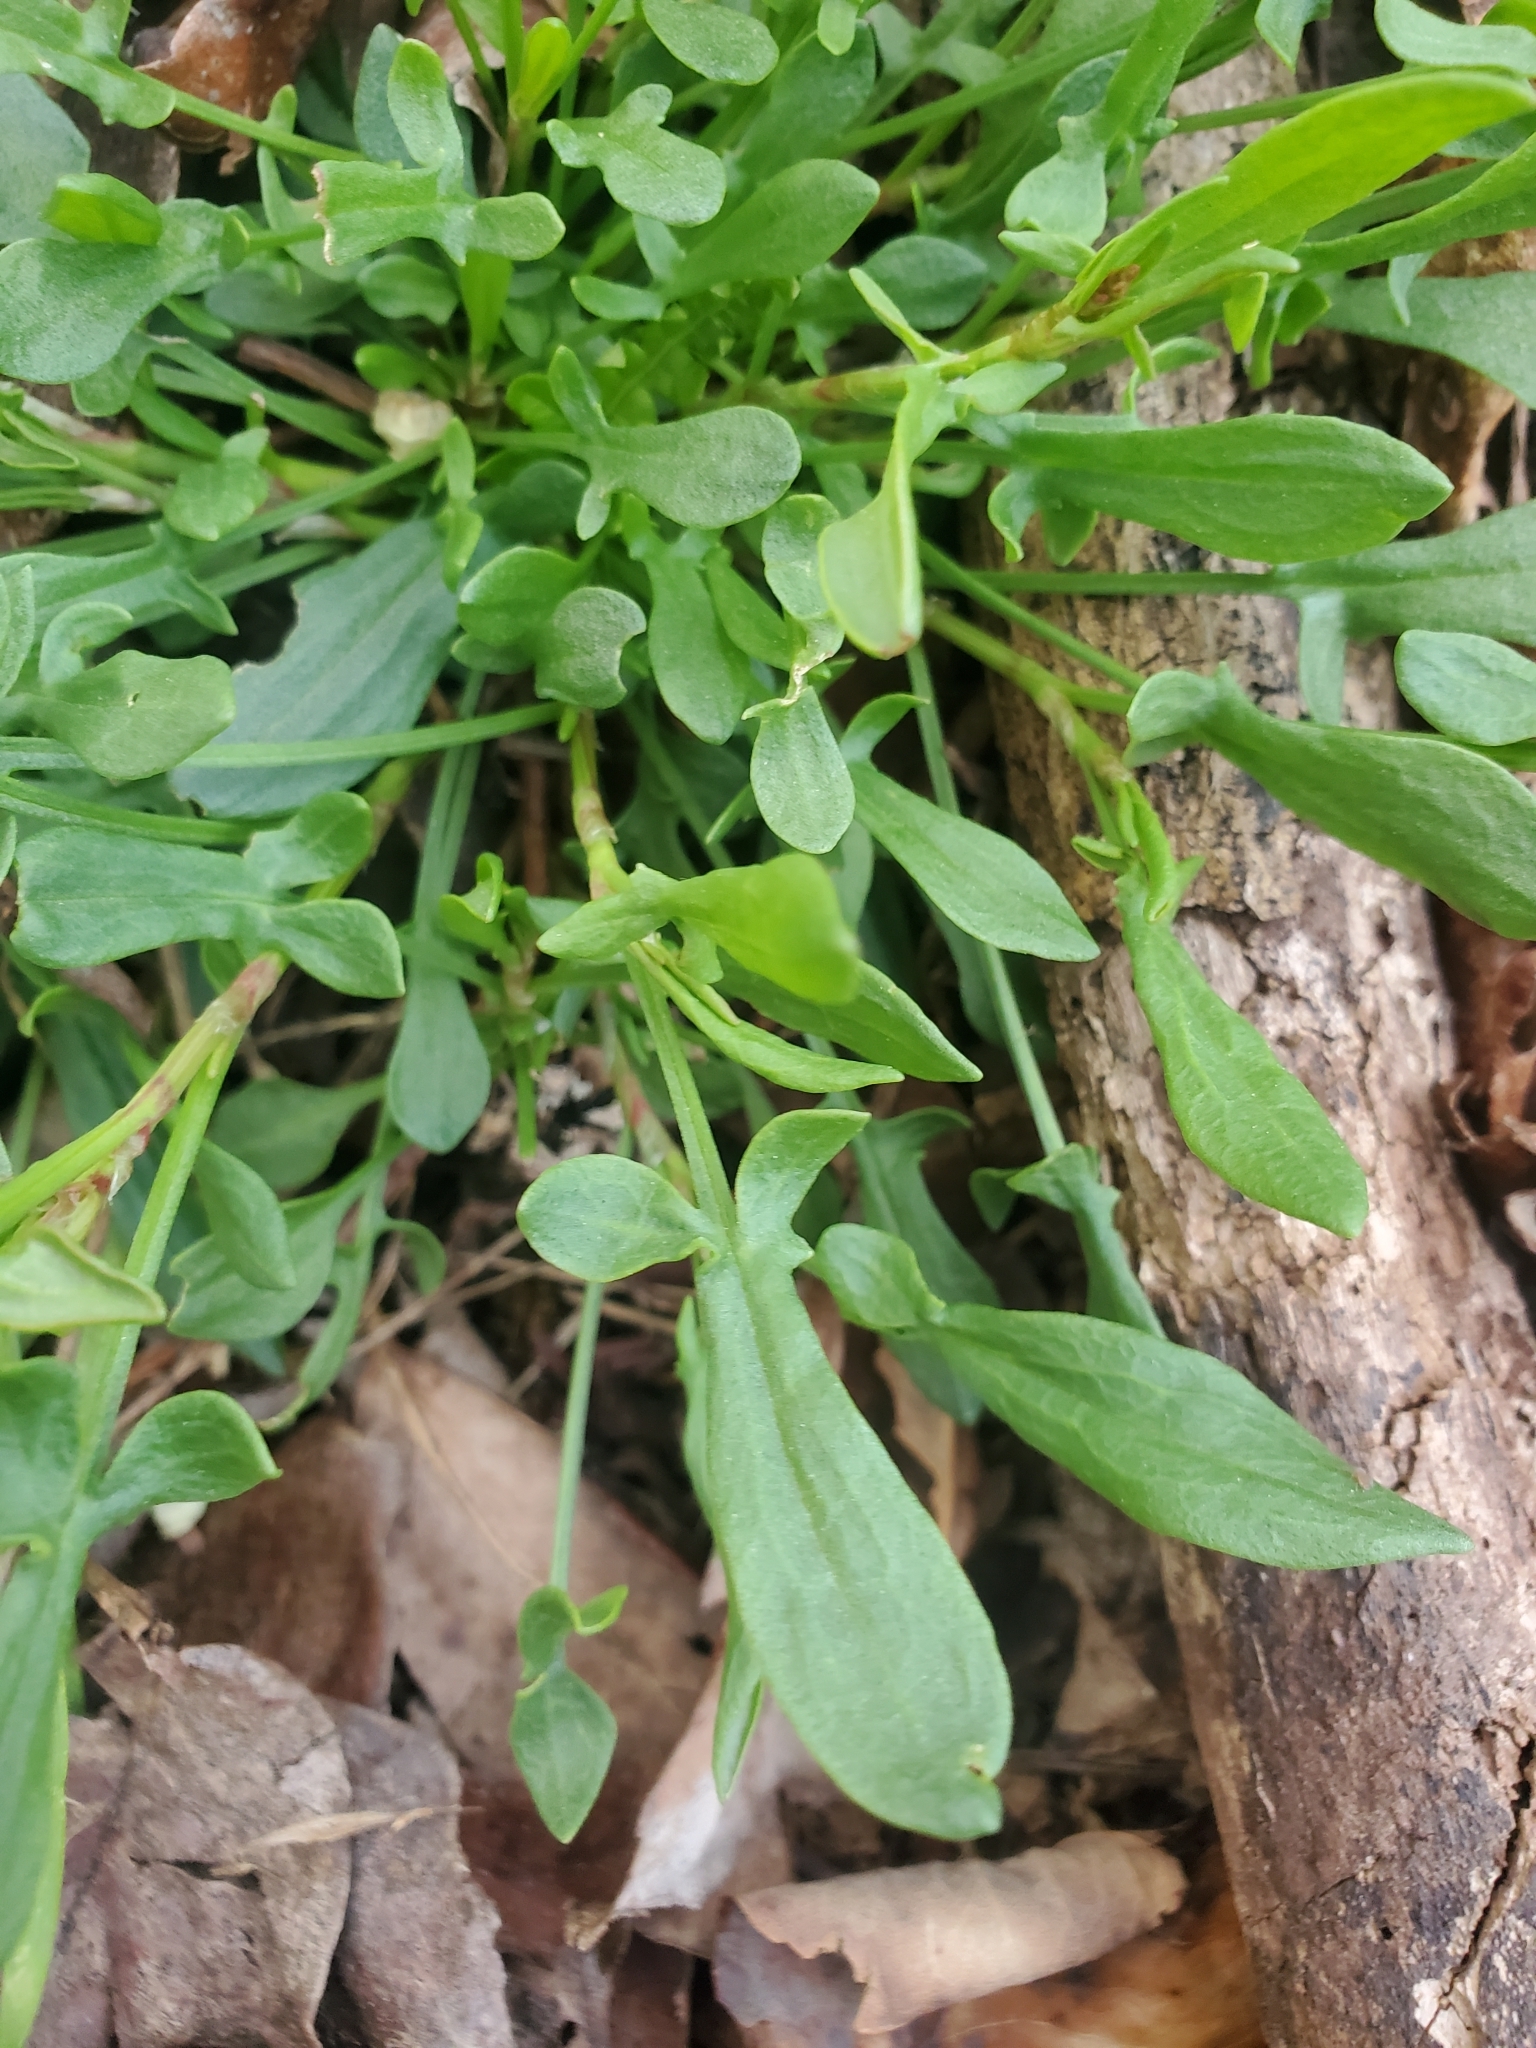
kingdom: Plantae
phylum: Tracheophyta
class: Magnoliopsida
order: Caryophyllales
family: Polygonaceae
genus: Rumex
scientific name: Rumex acetosella
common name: Common sheep sorrel
